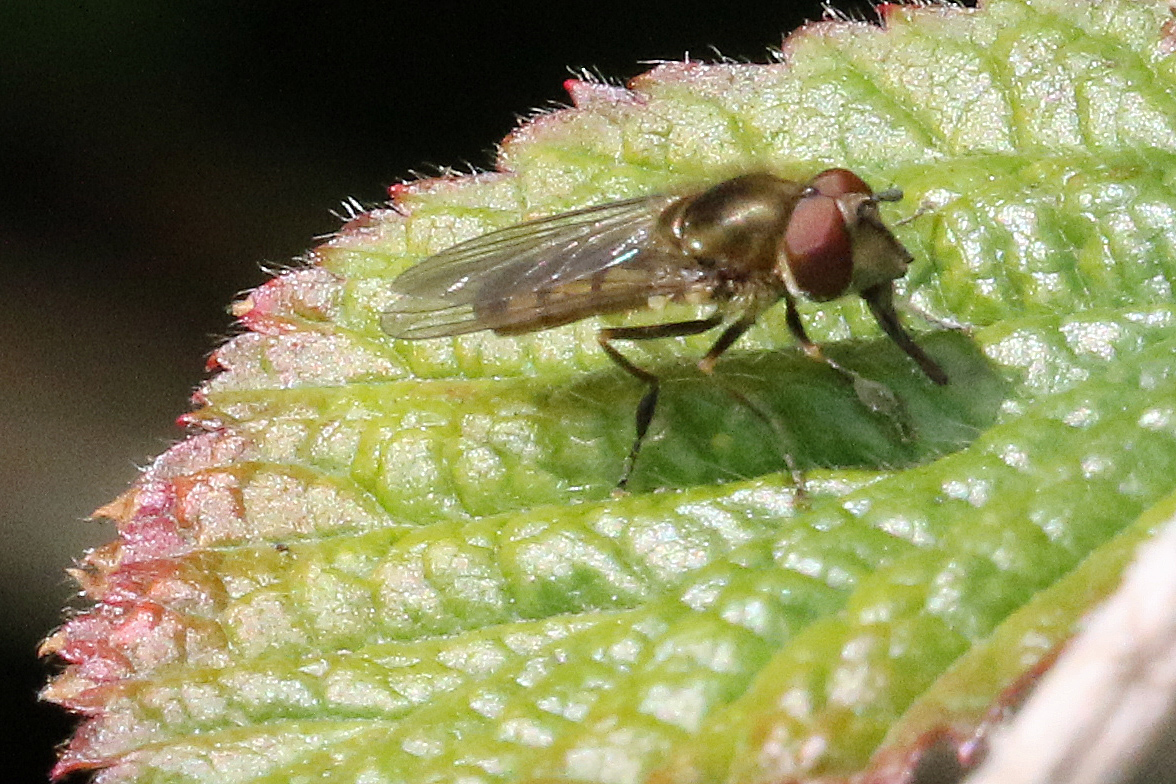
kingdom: Animalia
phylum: Arthropoda
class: Insecta
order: Diptera
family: Syrphidae
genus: Platycheirus
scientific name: Platycheirus manicatus
